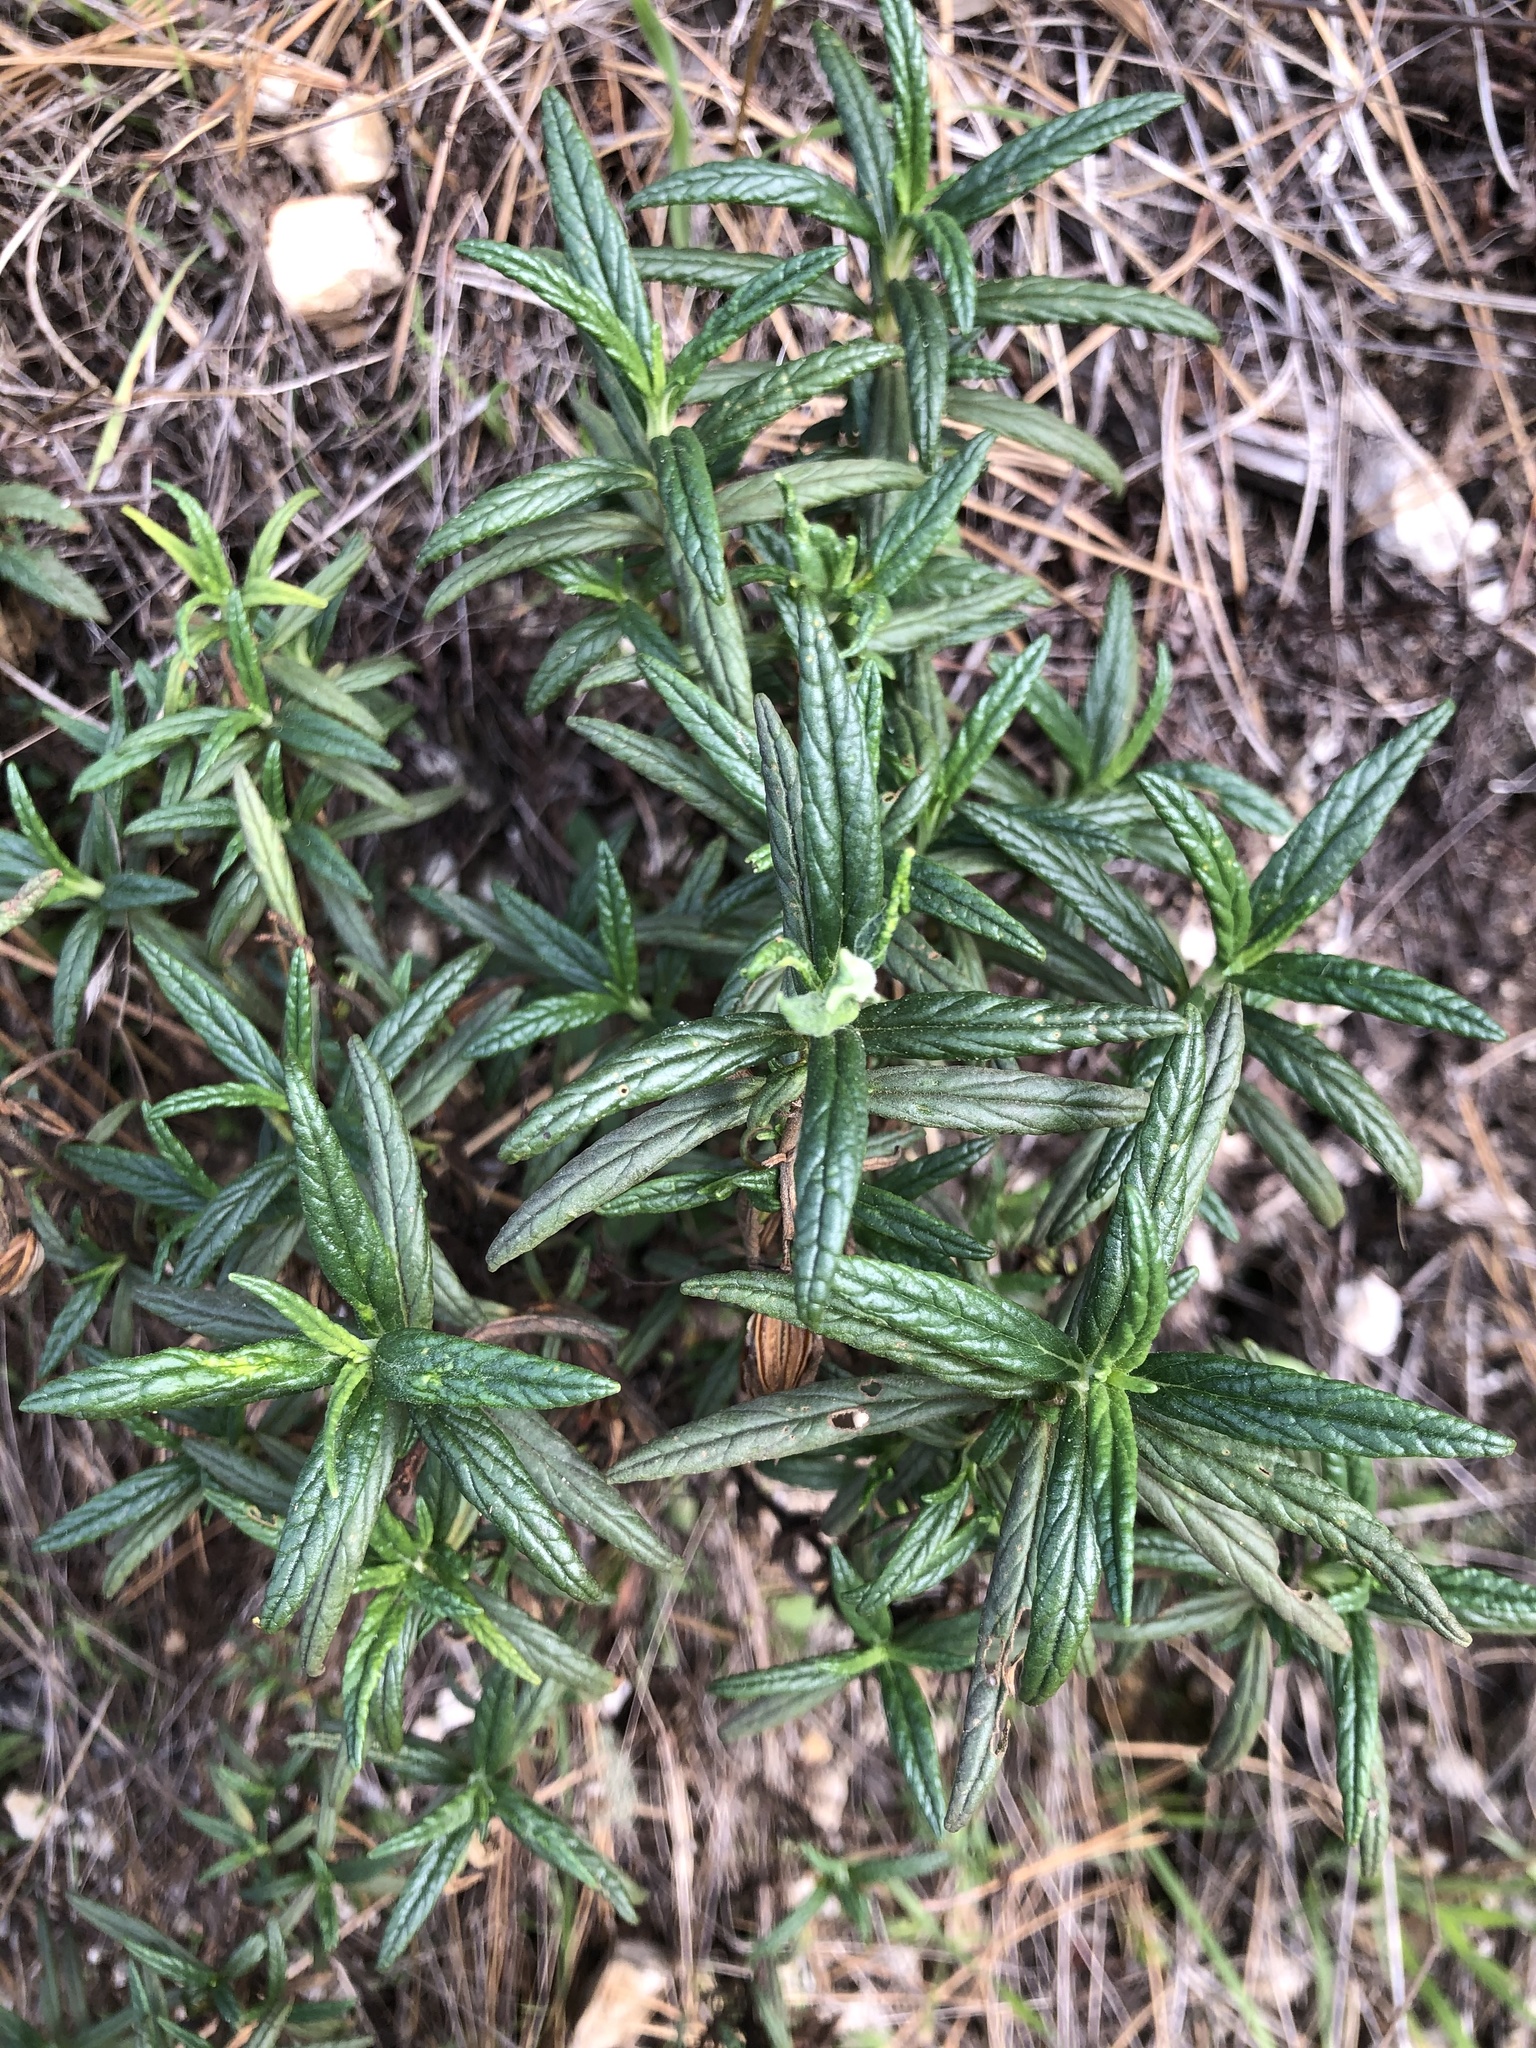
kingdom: Plantae
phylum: Tracheophyta
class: Magnoliopsida
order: Lamiales
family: Phrymaceae
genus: Diplacus
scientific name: Diplacus aurantiacus
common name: Bush monkey-flower
